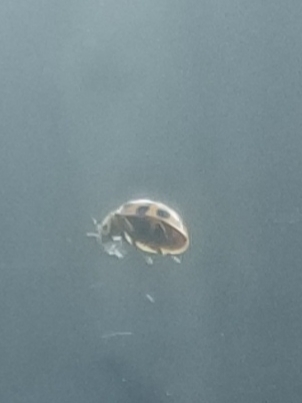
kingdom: Animalia
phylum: Arthropoda
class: Insecta
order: Coleoptera
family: Coccinellidae
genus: Harmonia
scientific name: Harmonia axyridis
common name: Harlequin ladybird
